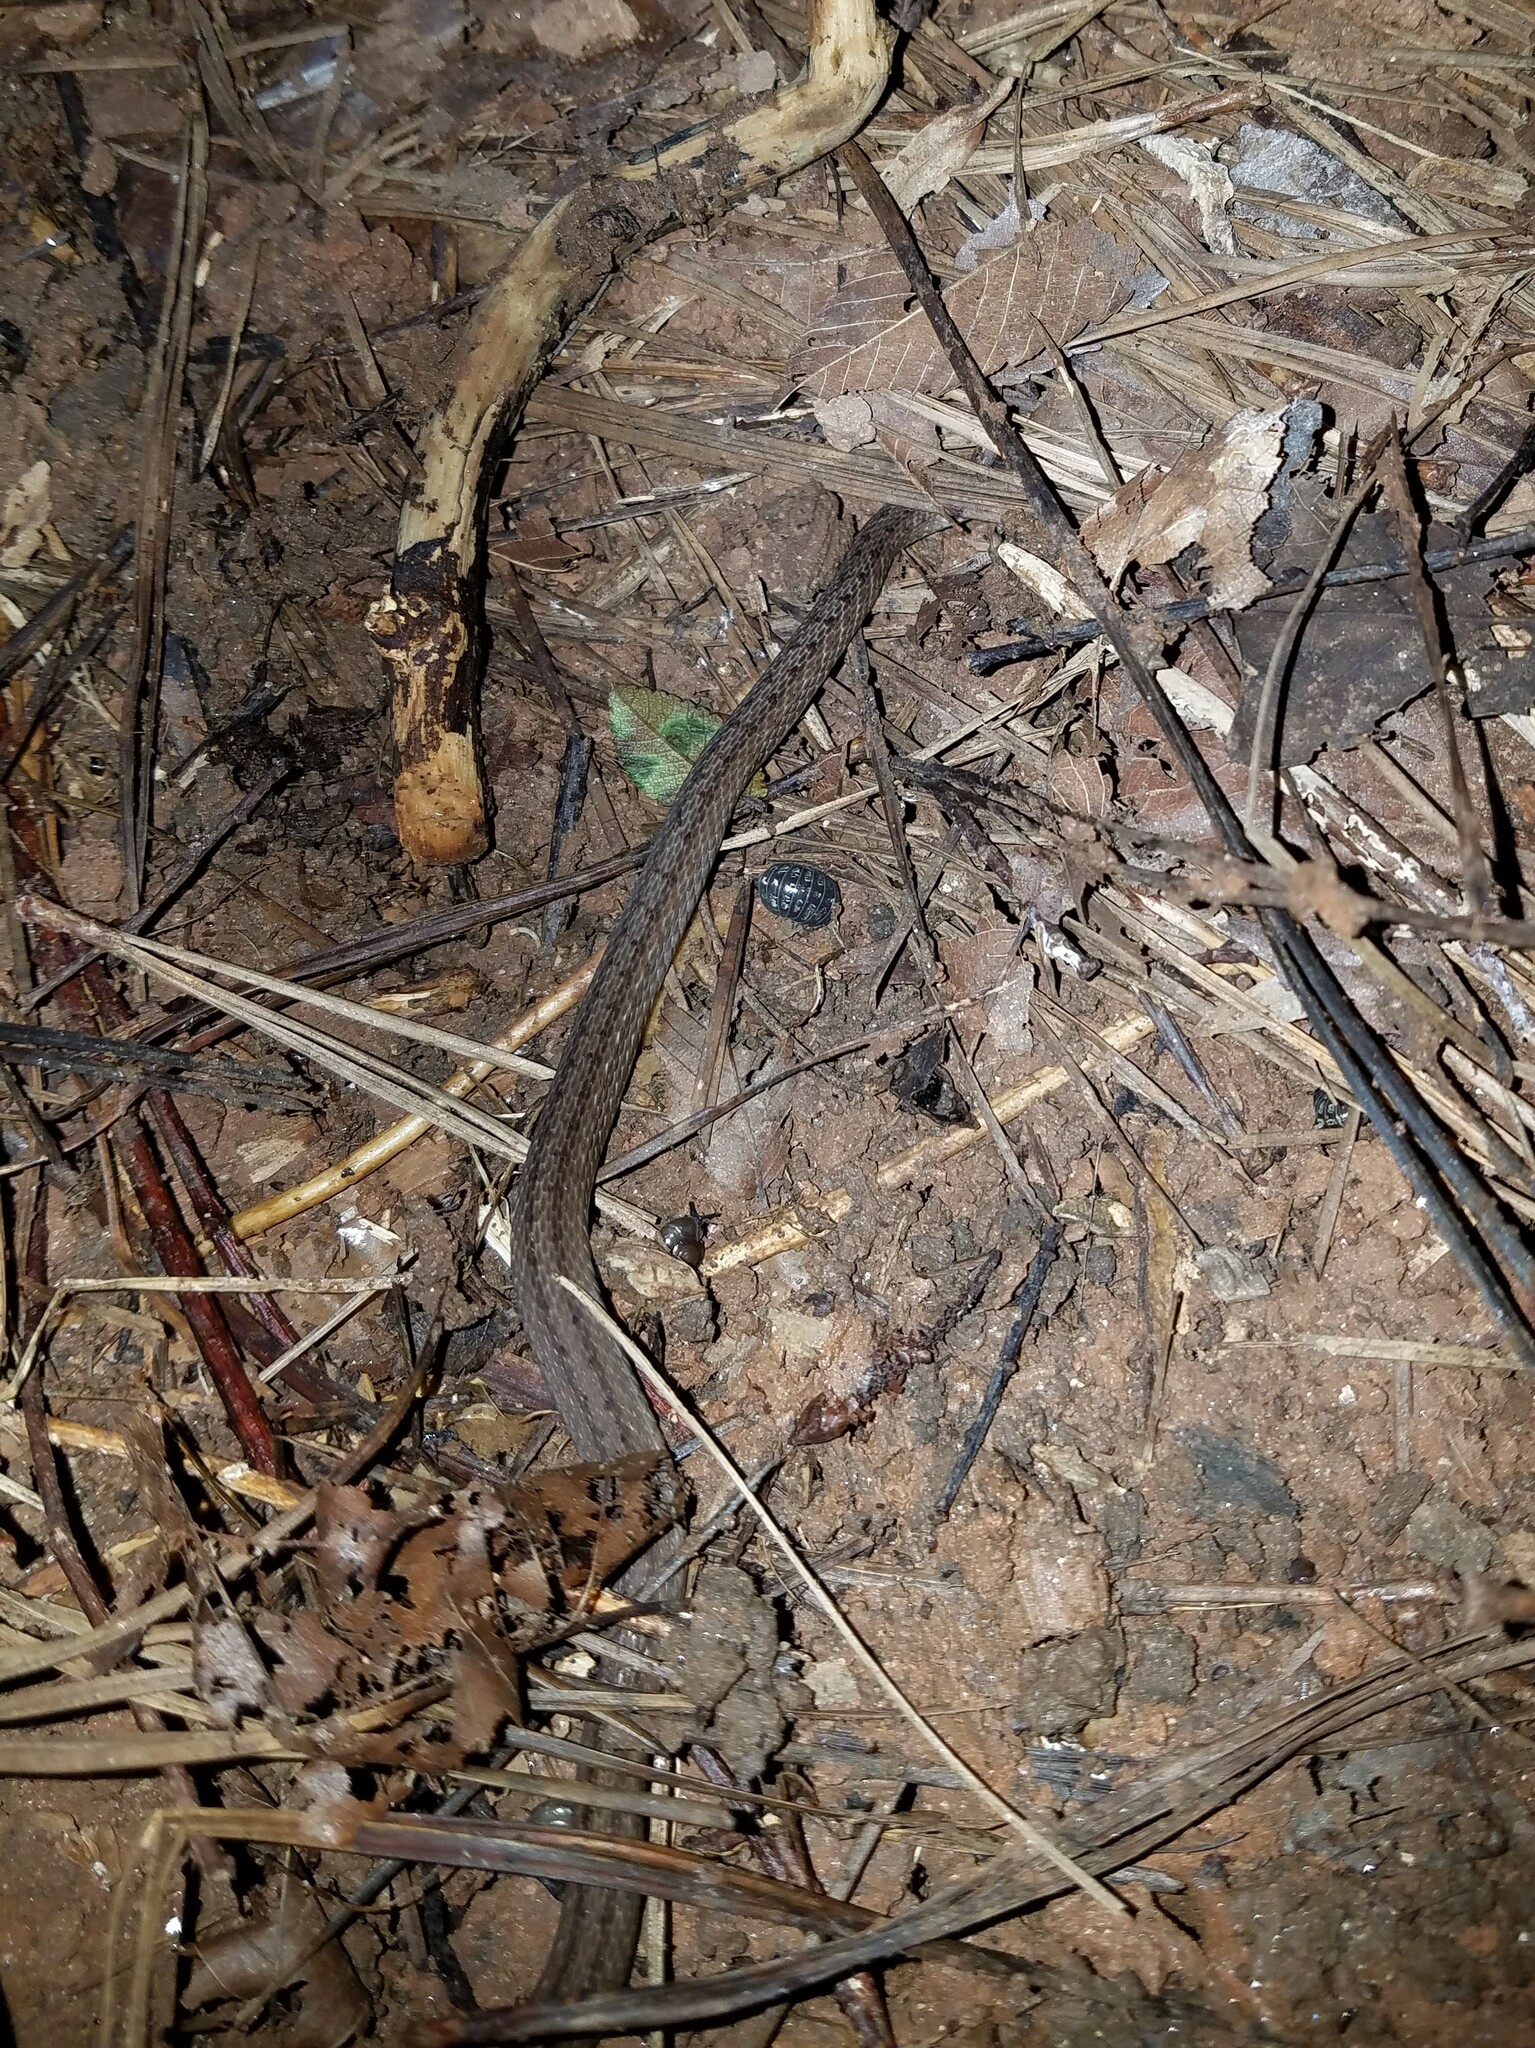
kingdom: Animalia
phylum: Chordata
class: Squamata
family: Colubridae
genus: Storeria
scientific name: Storeria dekayi
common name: (dekay’s) brown snake
